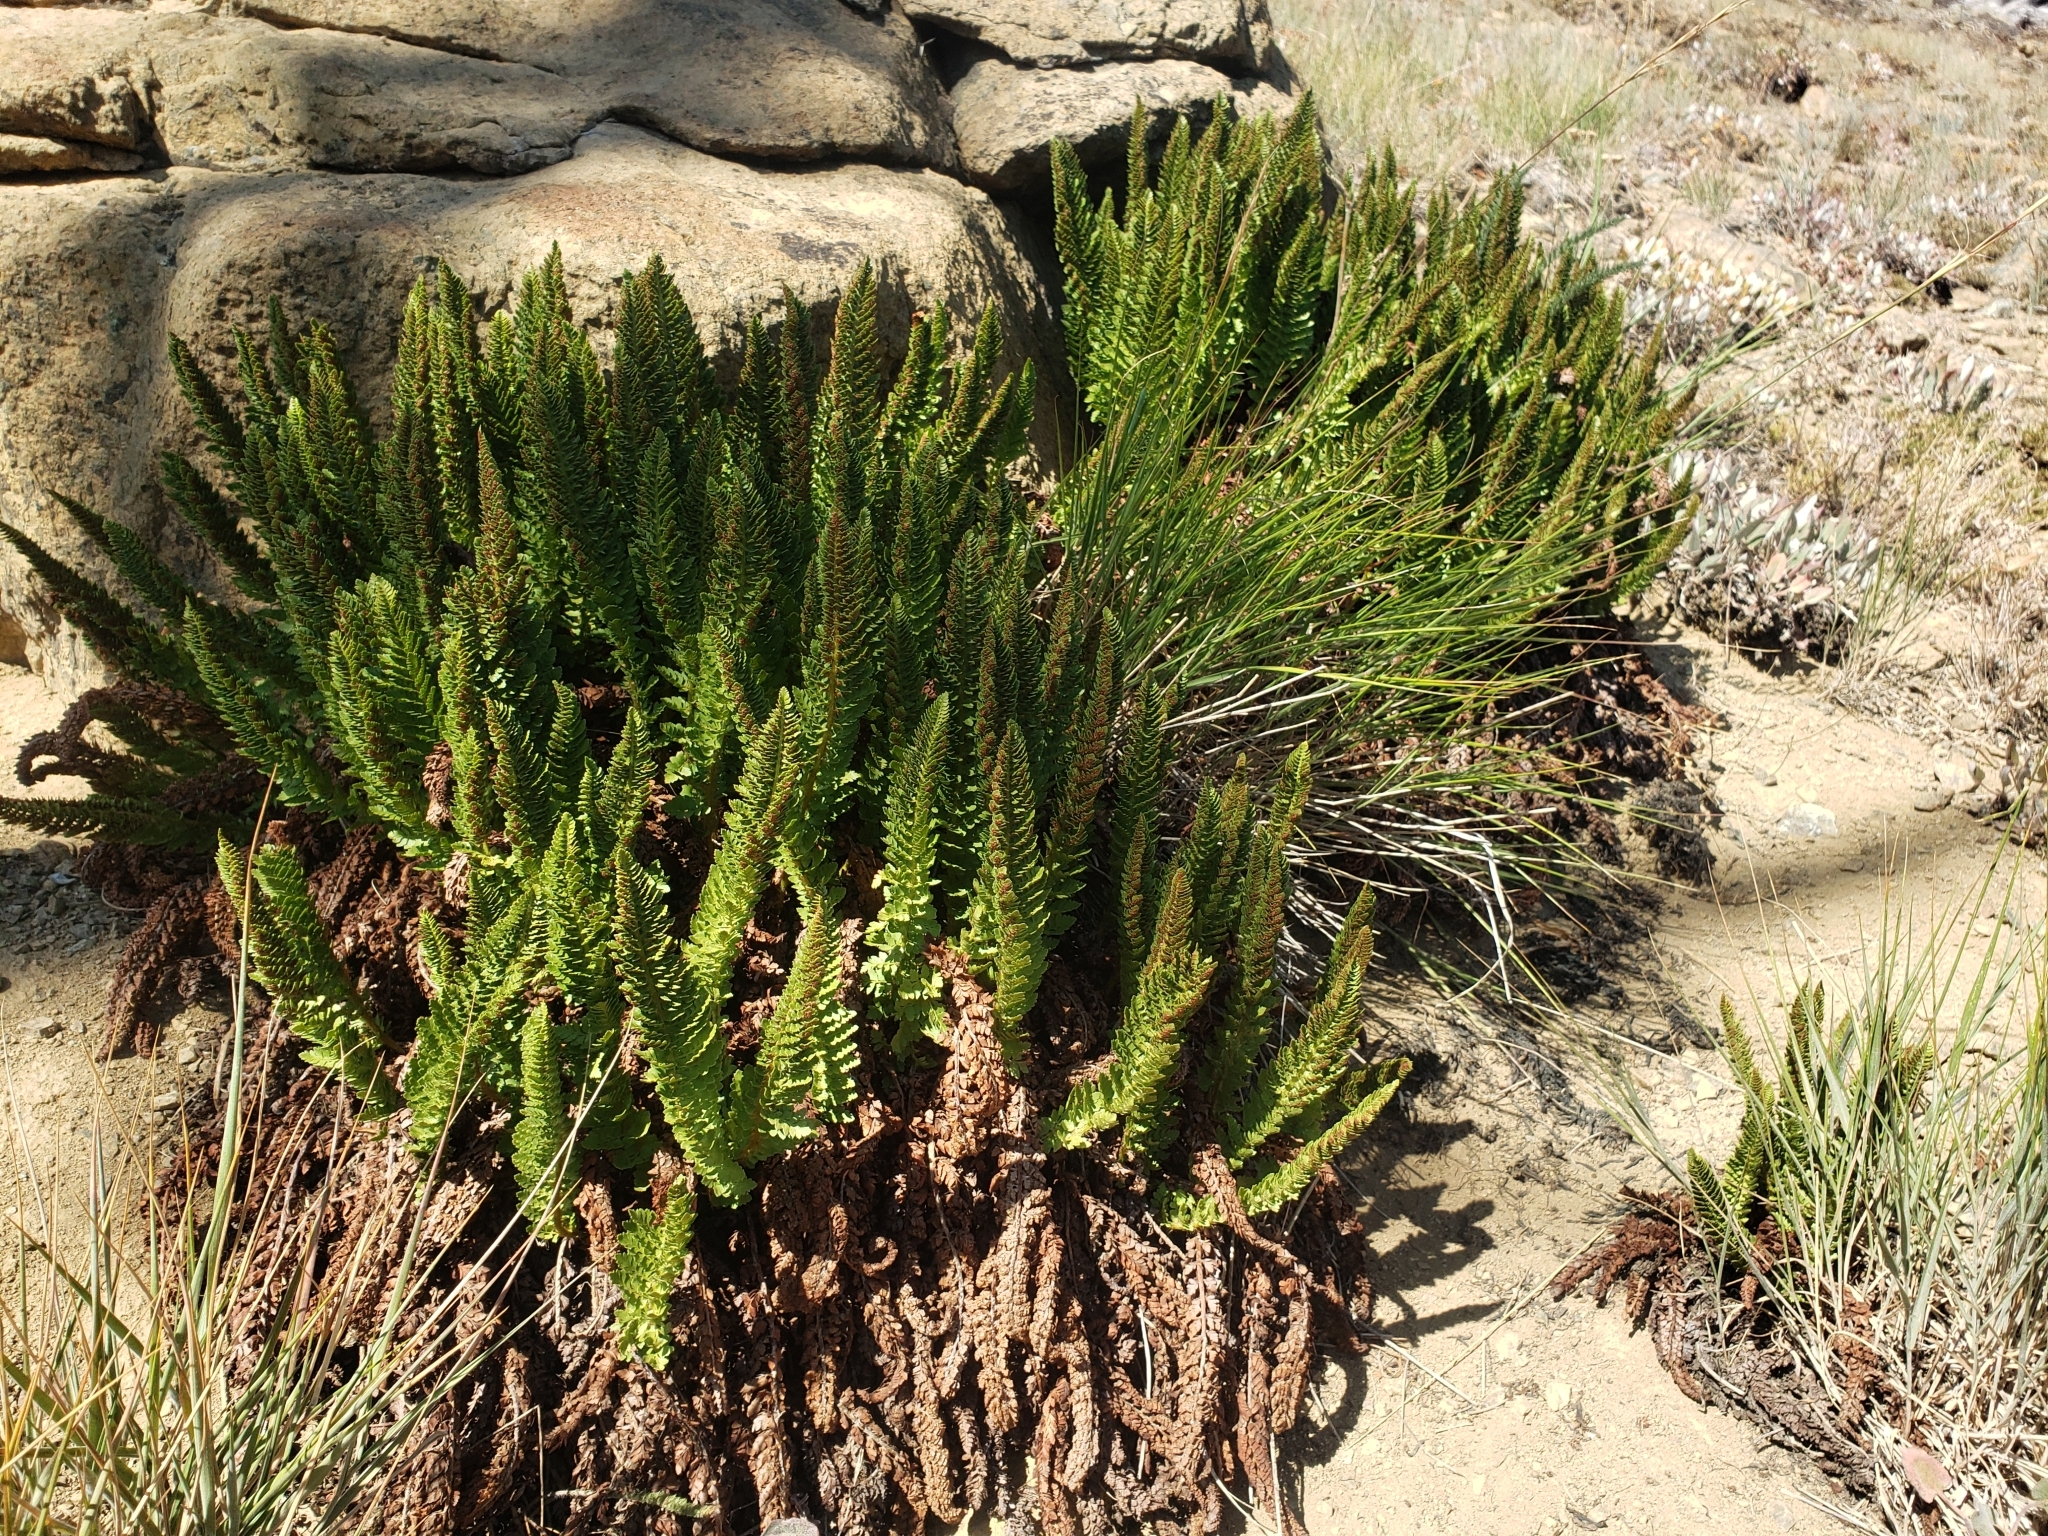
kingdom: Plantae
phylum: Tracheophyta
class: Polypodiopsida
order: Polypodiales
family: Dryopteridaceae
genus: Polystichum
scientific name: Polystichum lemmonii
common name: Lemmon's holly fern
